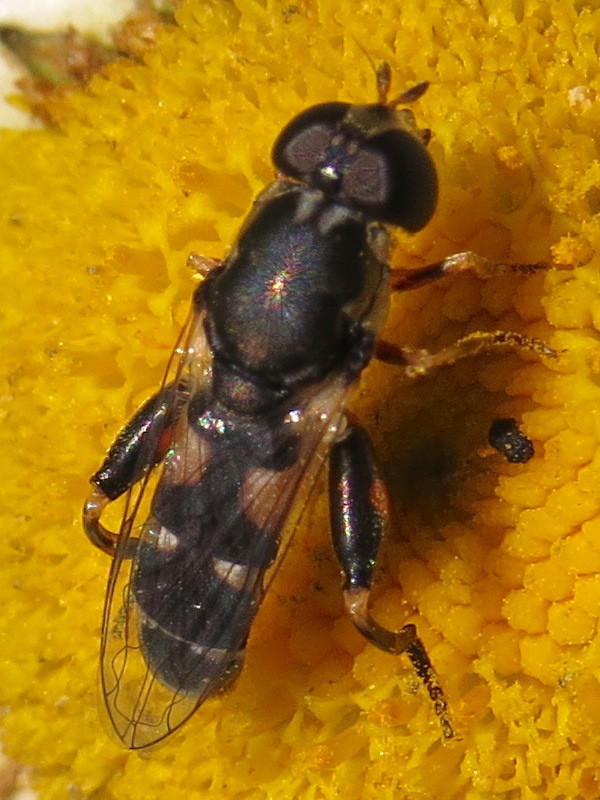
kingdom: Animalia
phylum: Arthropoda
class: Insecta
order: Diptera
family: Syrphidae
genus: Syritta
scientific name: Syritta pipiens
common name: Hover fly
